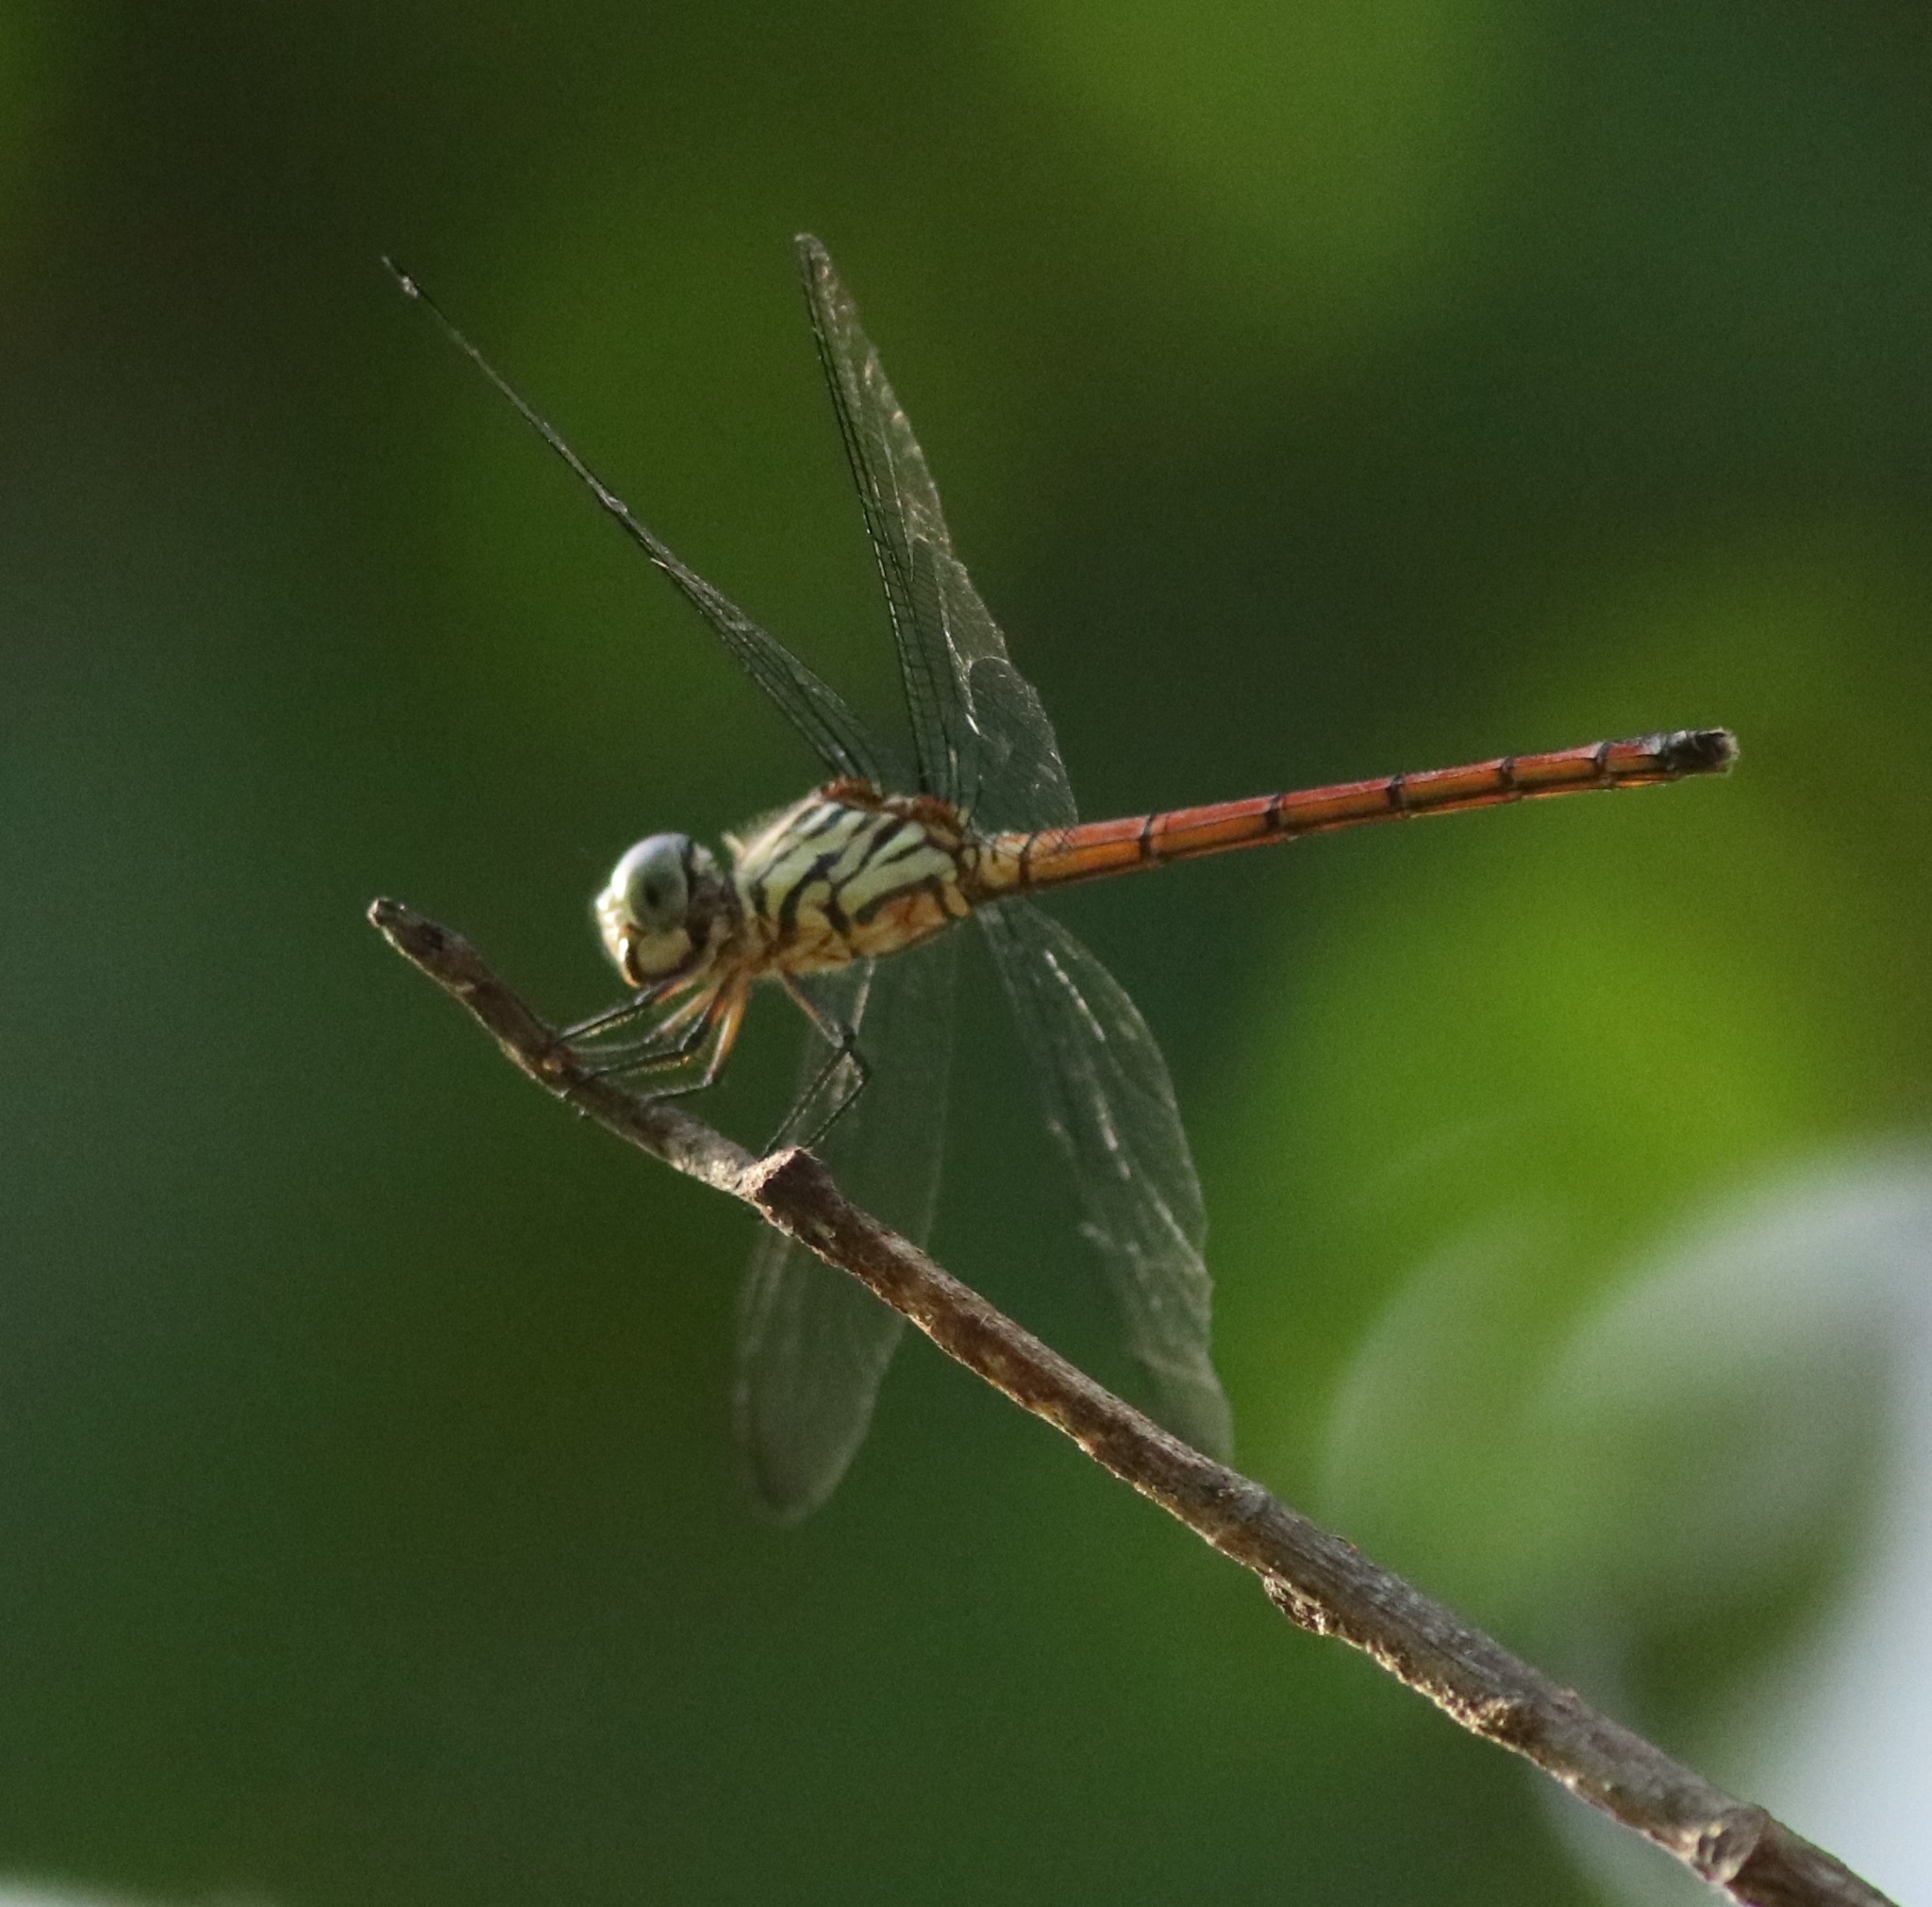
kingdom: Animalia
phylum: Arthropoda
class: Insecta
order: Odonata
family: Libellulidae
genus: Lathrecista
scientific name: Lathrecista asiatica
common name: Scarlet grenadier
